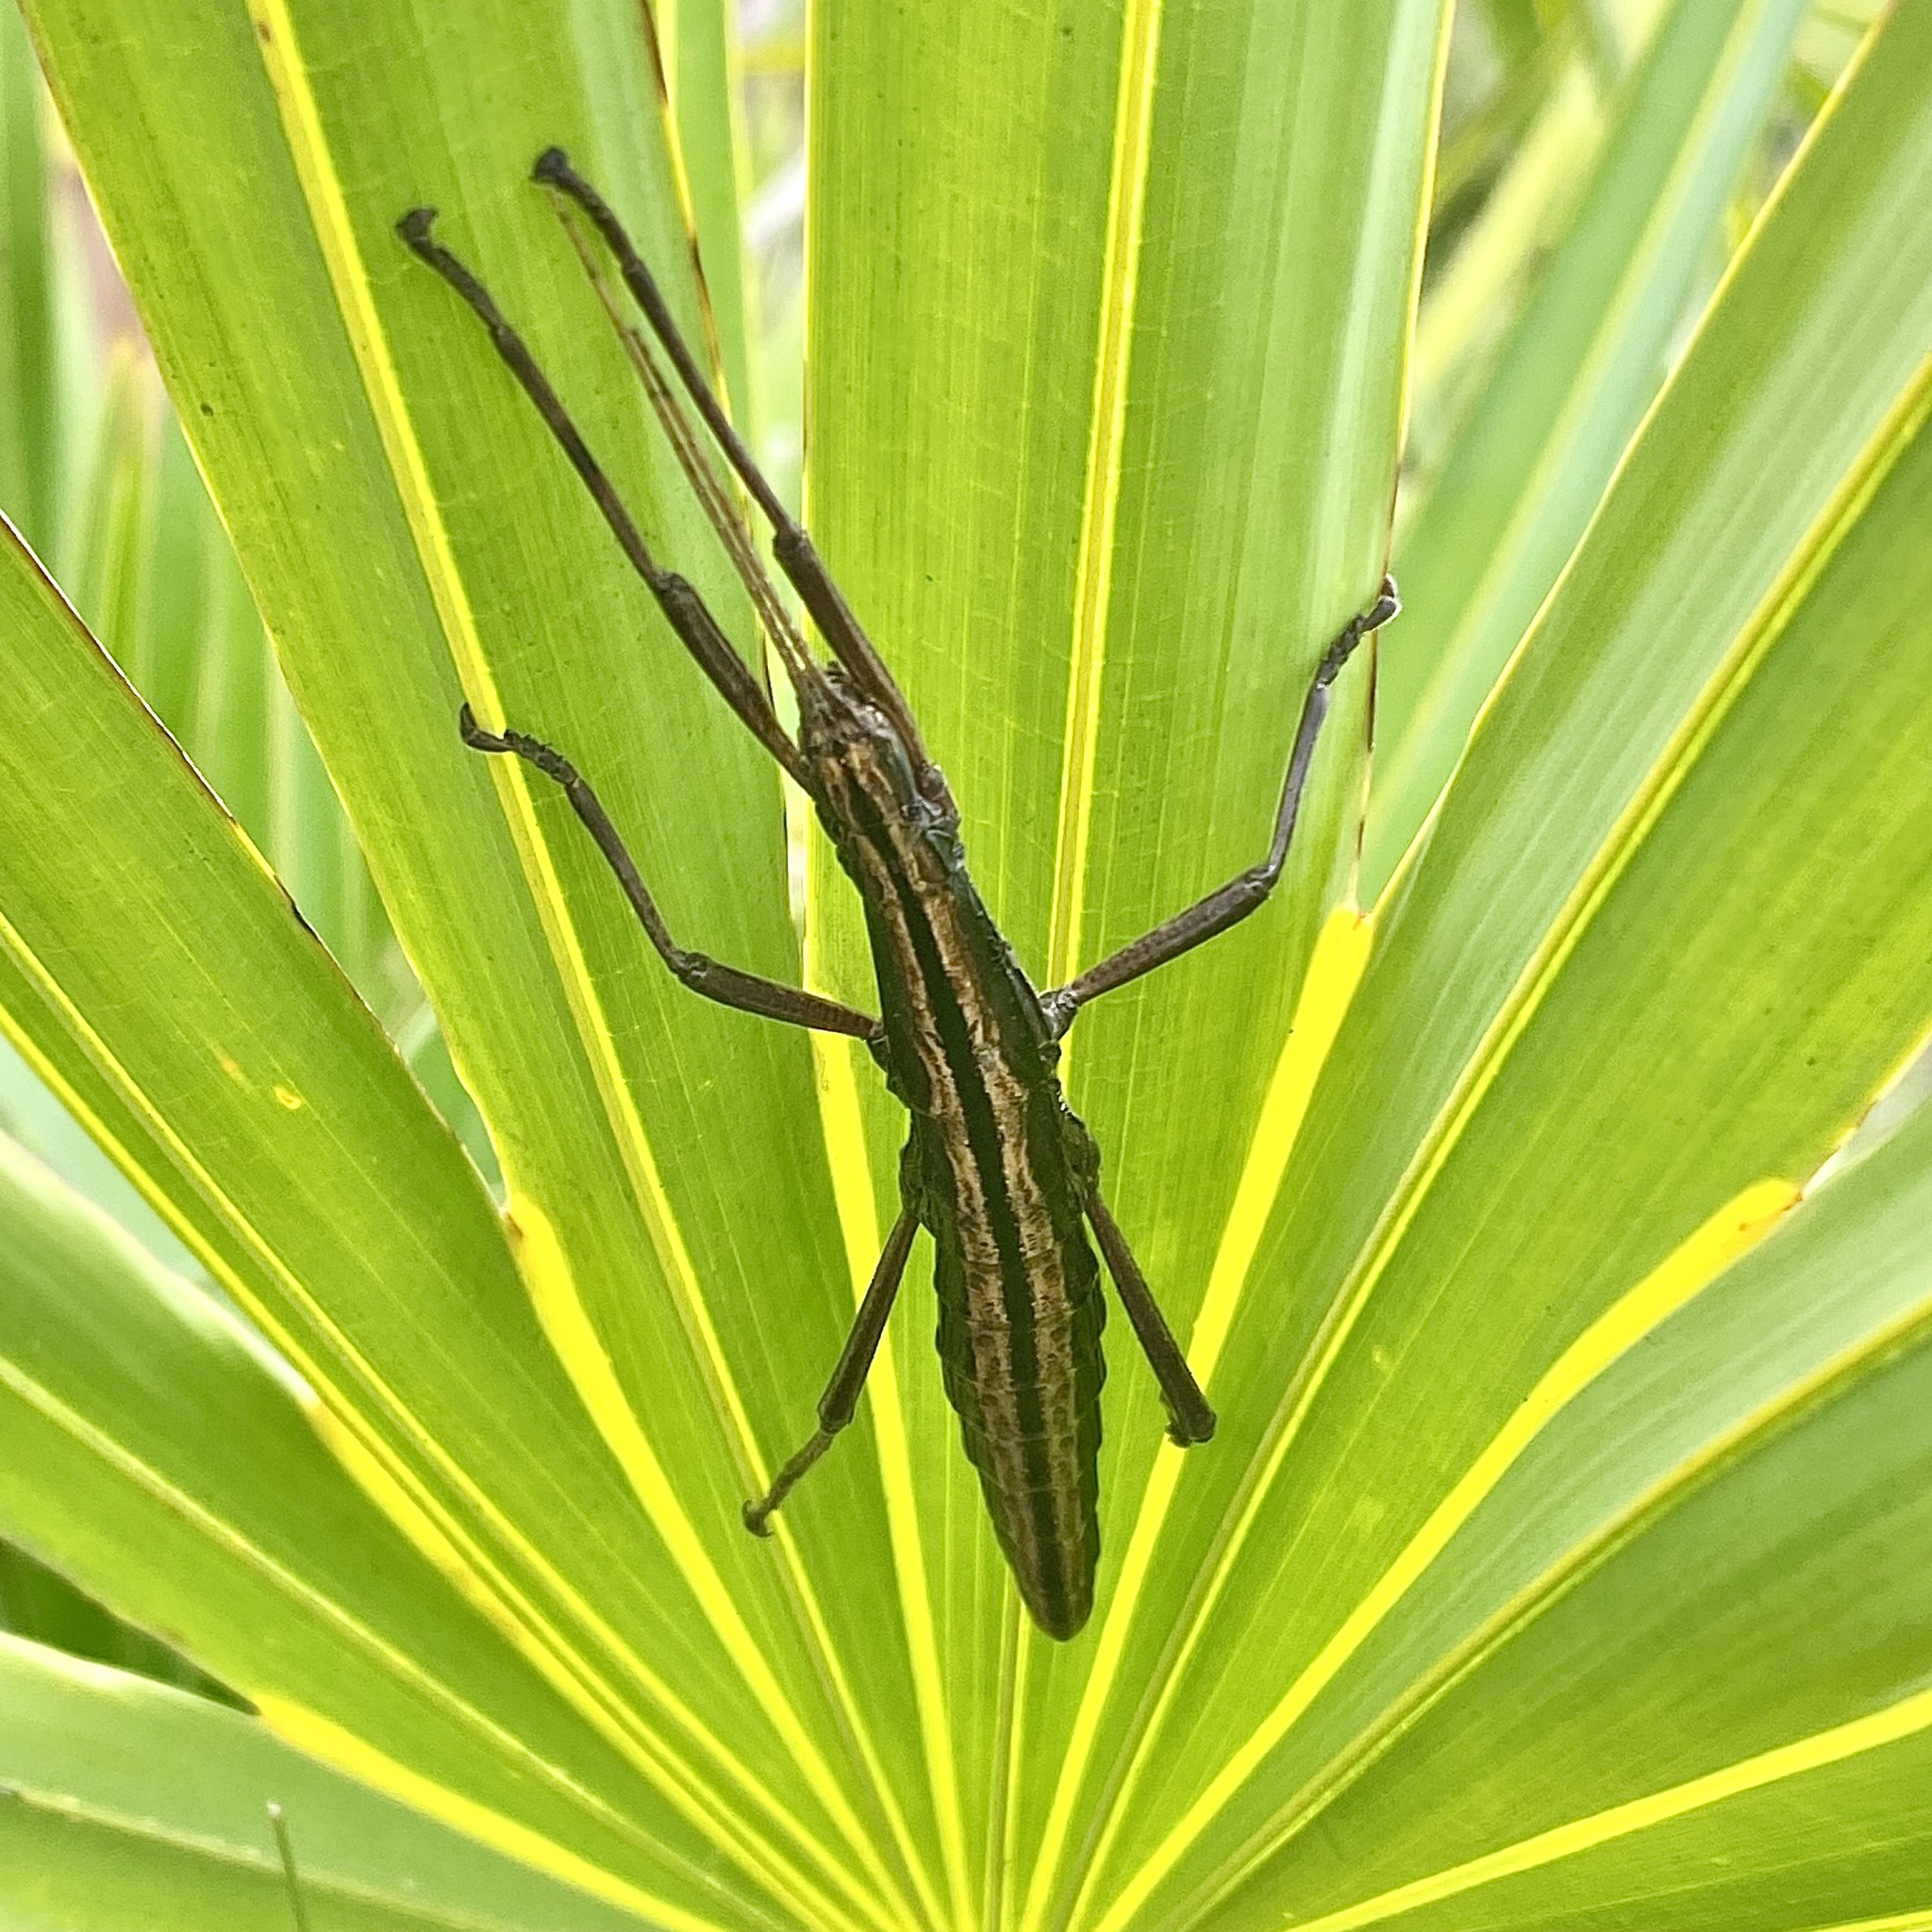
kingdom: Animalia
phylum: Arthropoda
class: Insecta
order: Phasmida
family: Pseudophasmatidae
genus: Anisomorpha
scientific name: Anisomorpha buprestoides
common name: Florida stick insect
